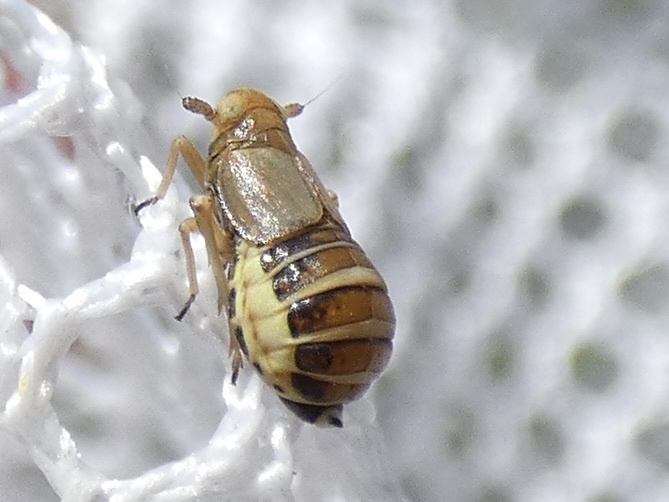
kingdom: Animalia
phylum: Arthropoda
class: Insecta
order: Hemiptera
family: Delphacidae
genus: Ditropis
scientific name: Ditropis pteridis
